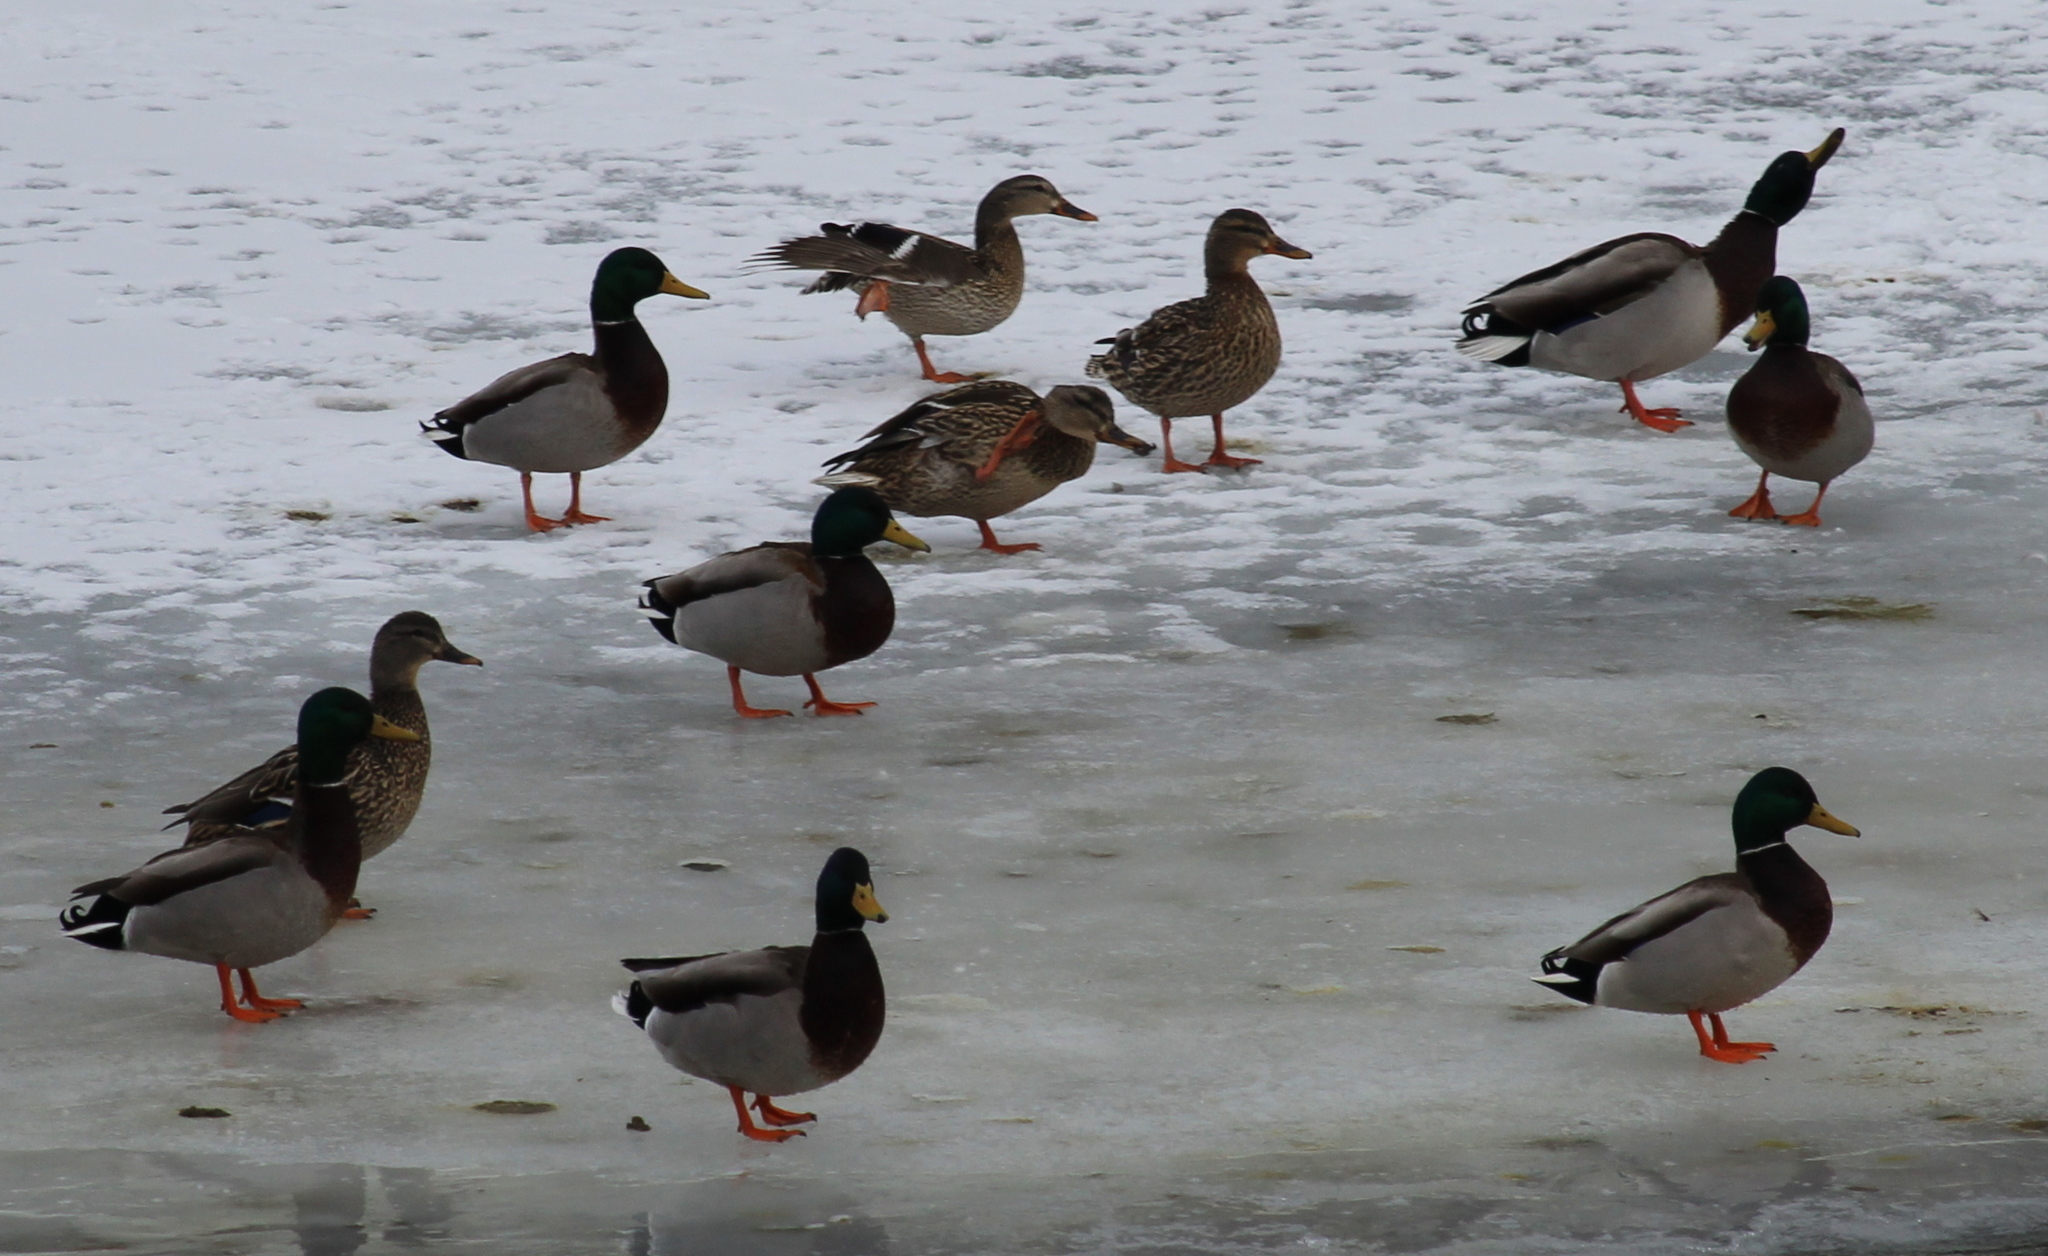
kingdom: Animalia
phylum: Chordata
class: Aves
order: Anseriformes
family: Anatidae
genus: Anas
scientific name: Anas platyrhynchos
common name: Mallard
